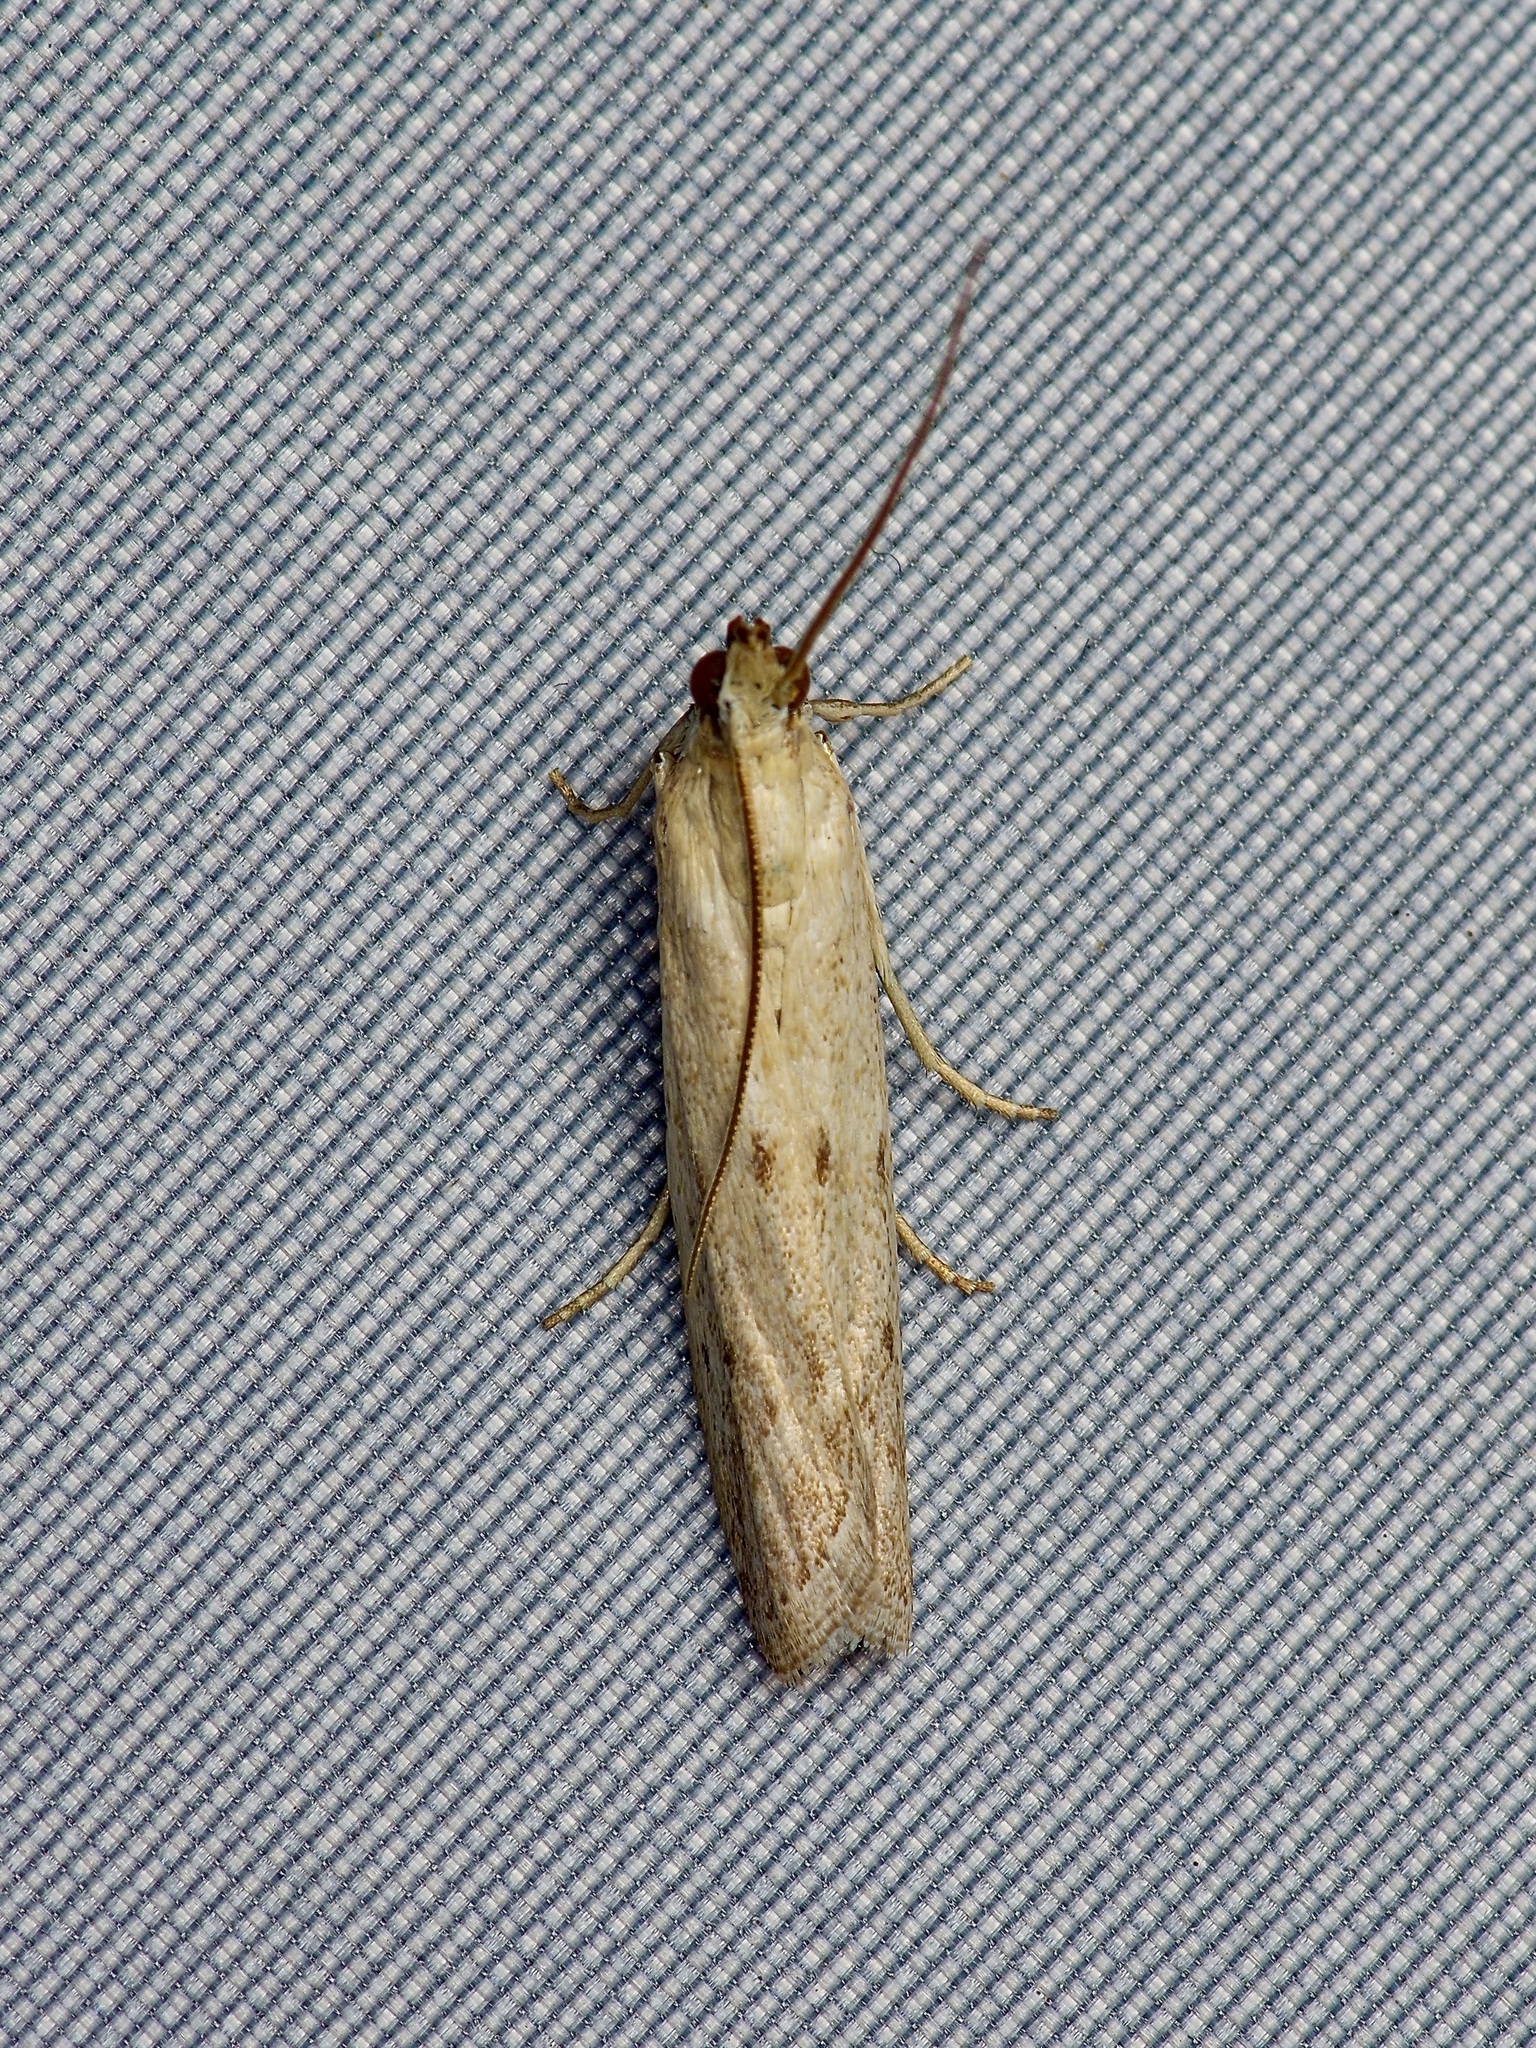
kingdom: Animalia
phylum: Arthropoda
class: Insecta
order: Lepidoptera
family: Pyralidae
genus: Homoeosoma
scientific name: Homoeosoma electella
